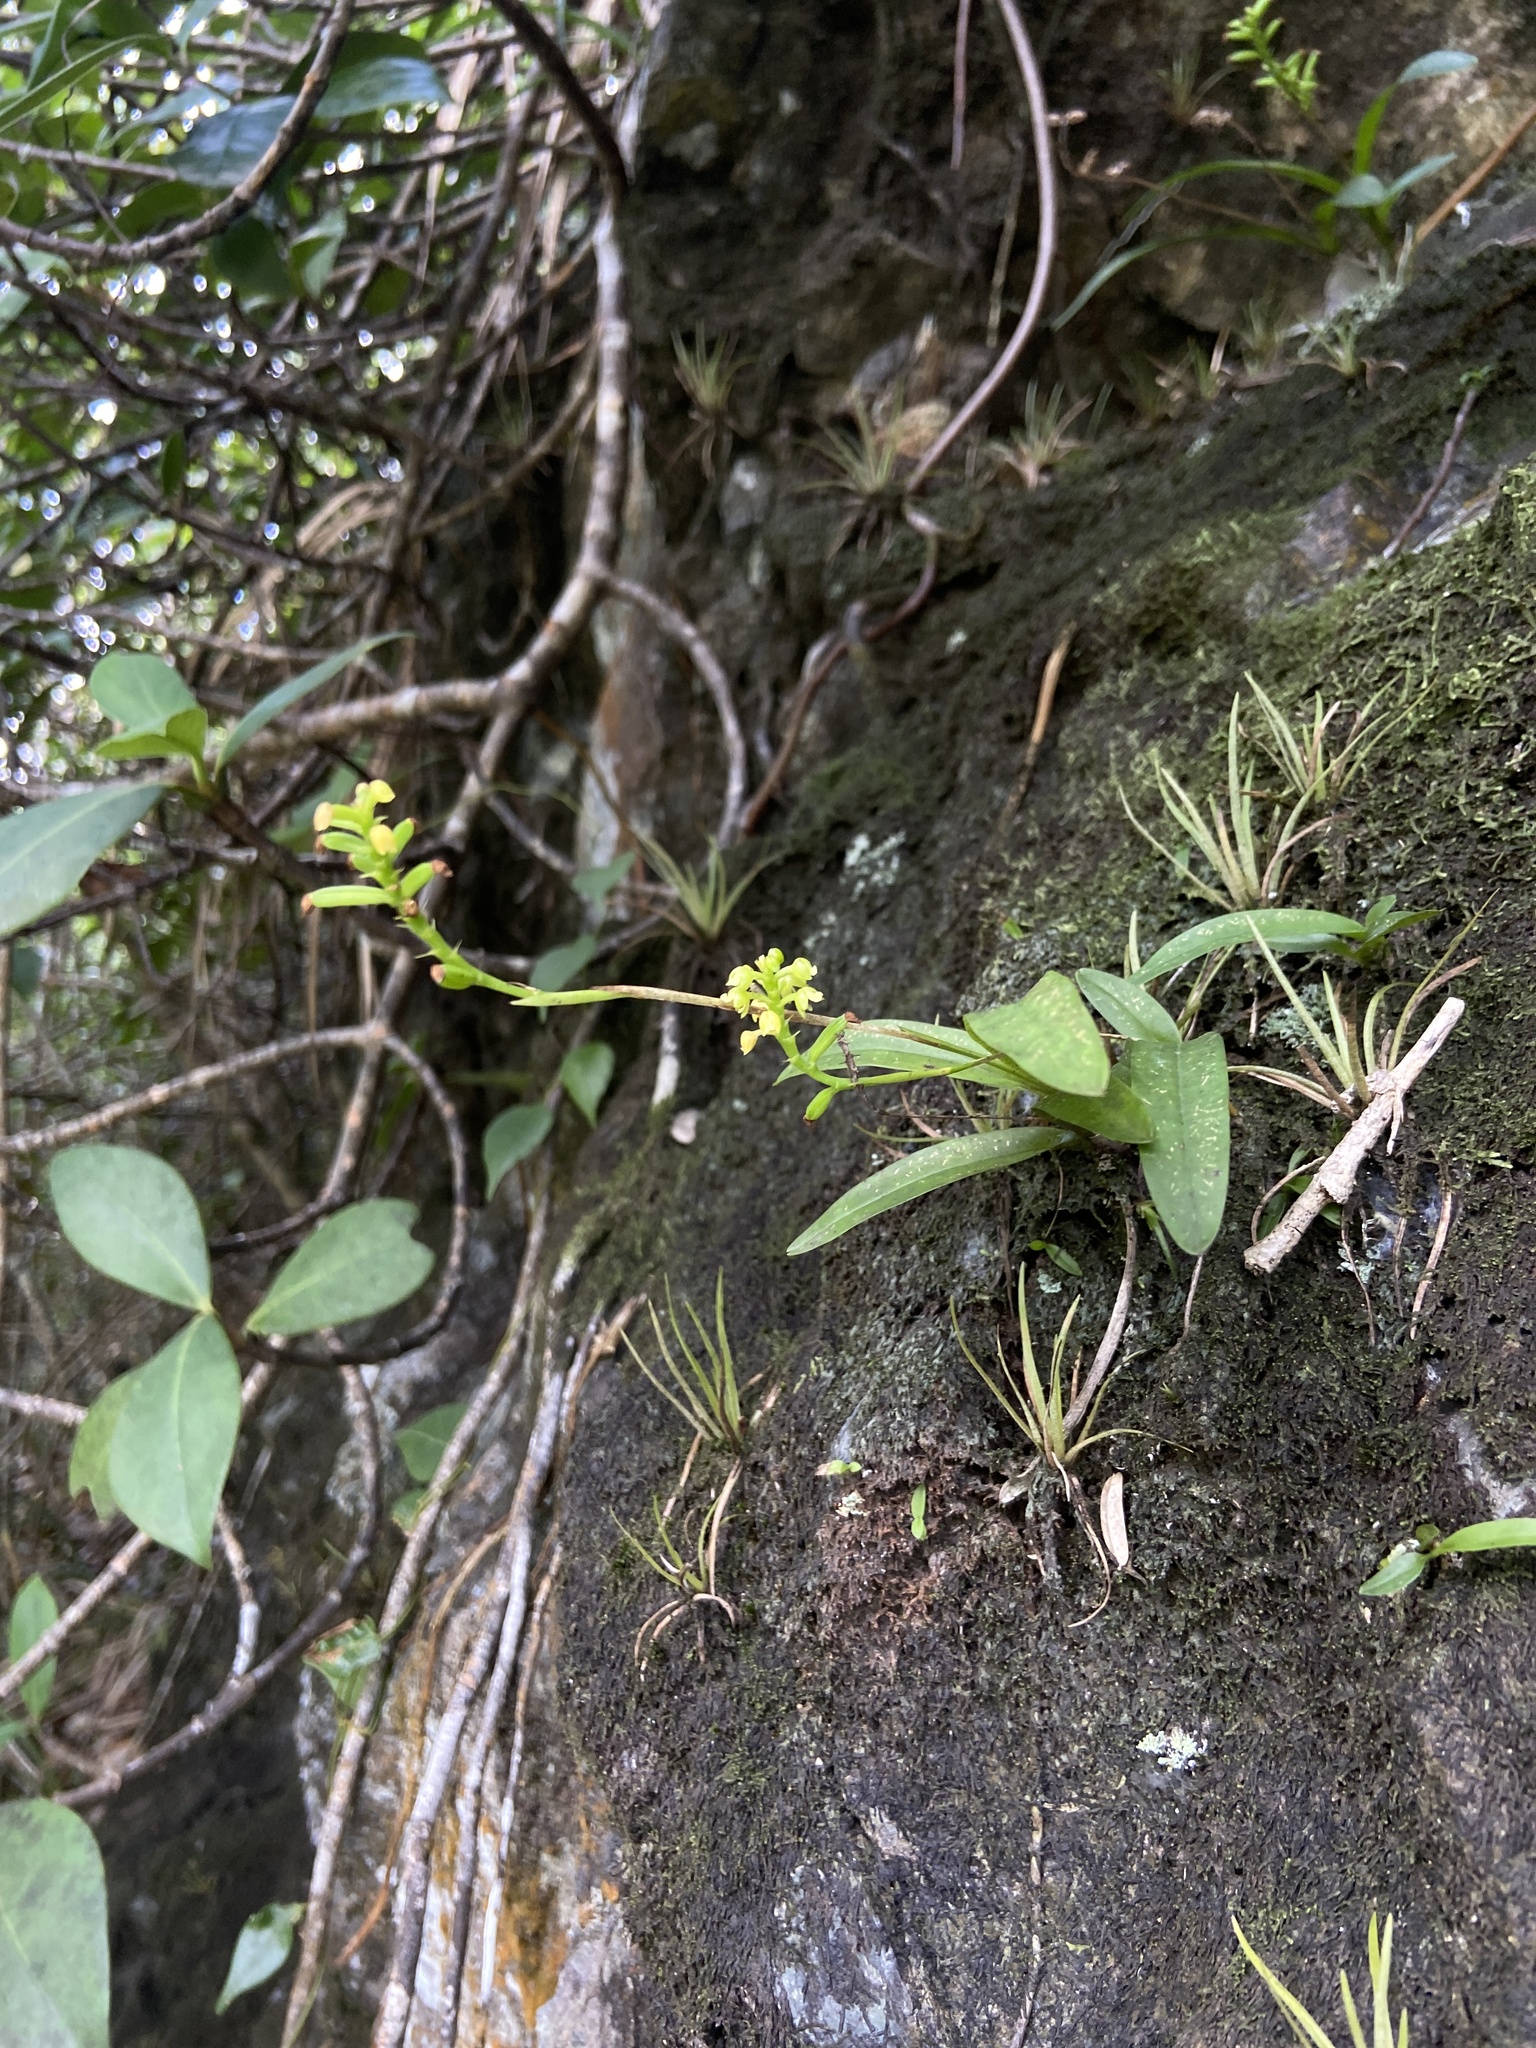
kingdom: Plantae
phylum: Tracheophyta
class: Liliopsida
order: Asparagales
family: Orchidaceae
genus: Polystachya
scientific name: Polystachya concreta
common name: Greater yellowspike orchid
